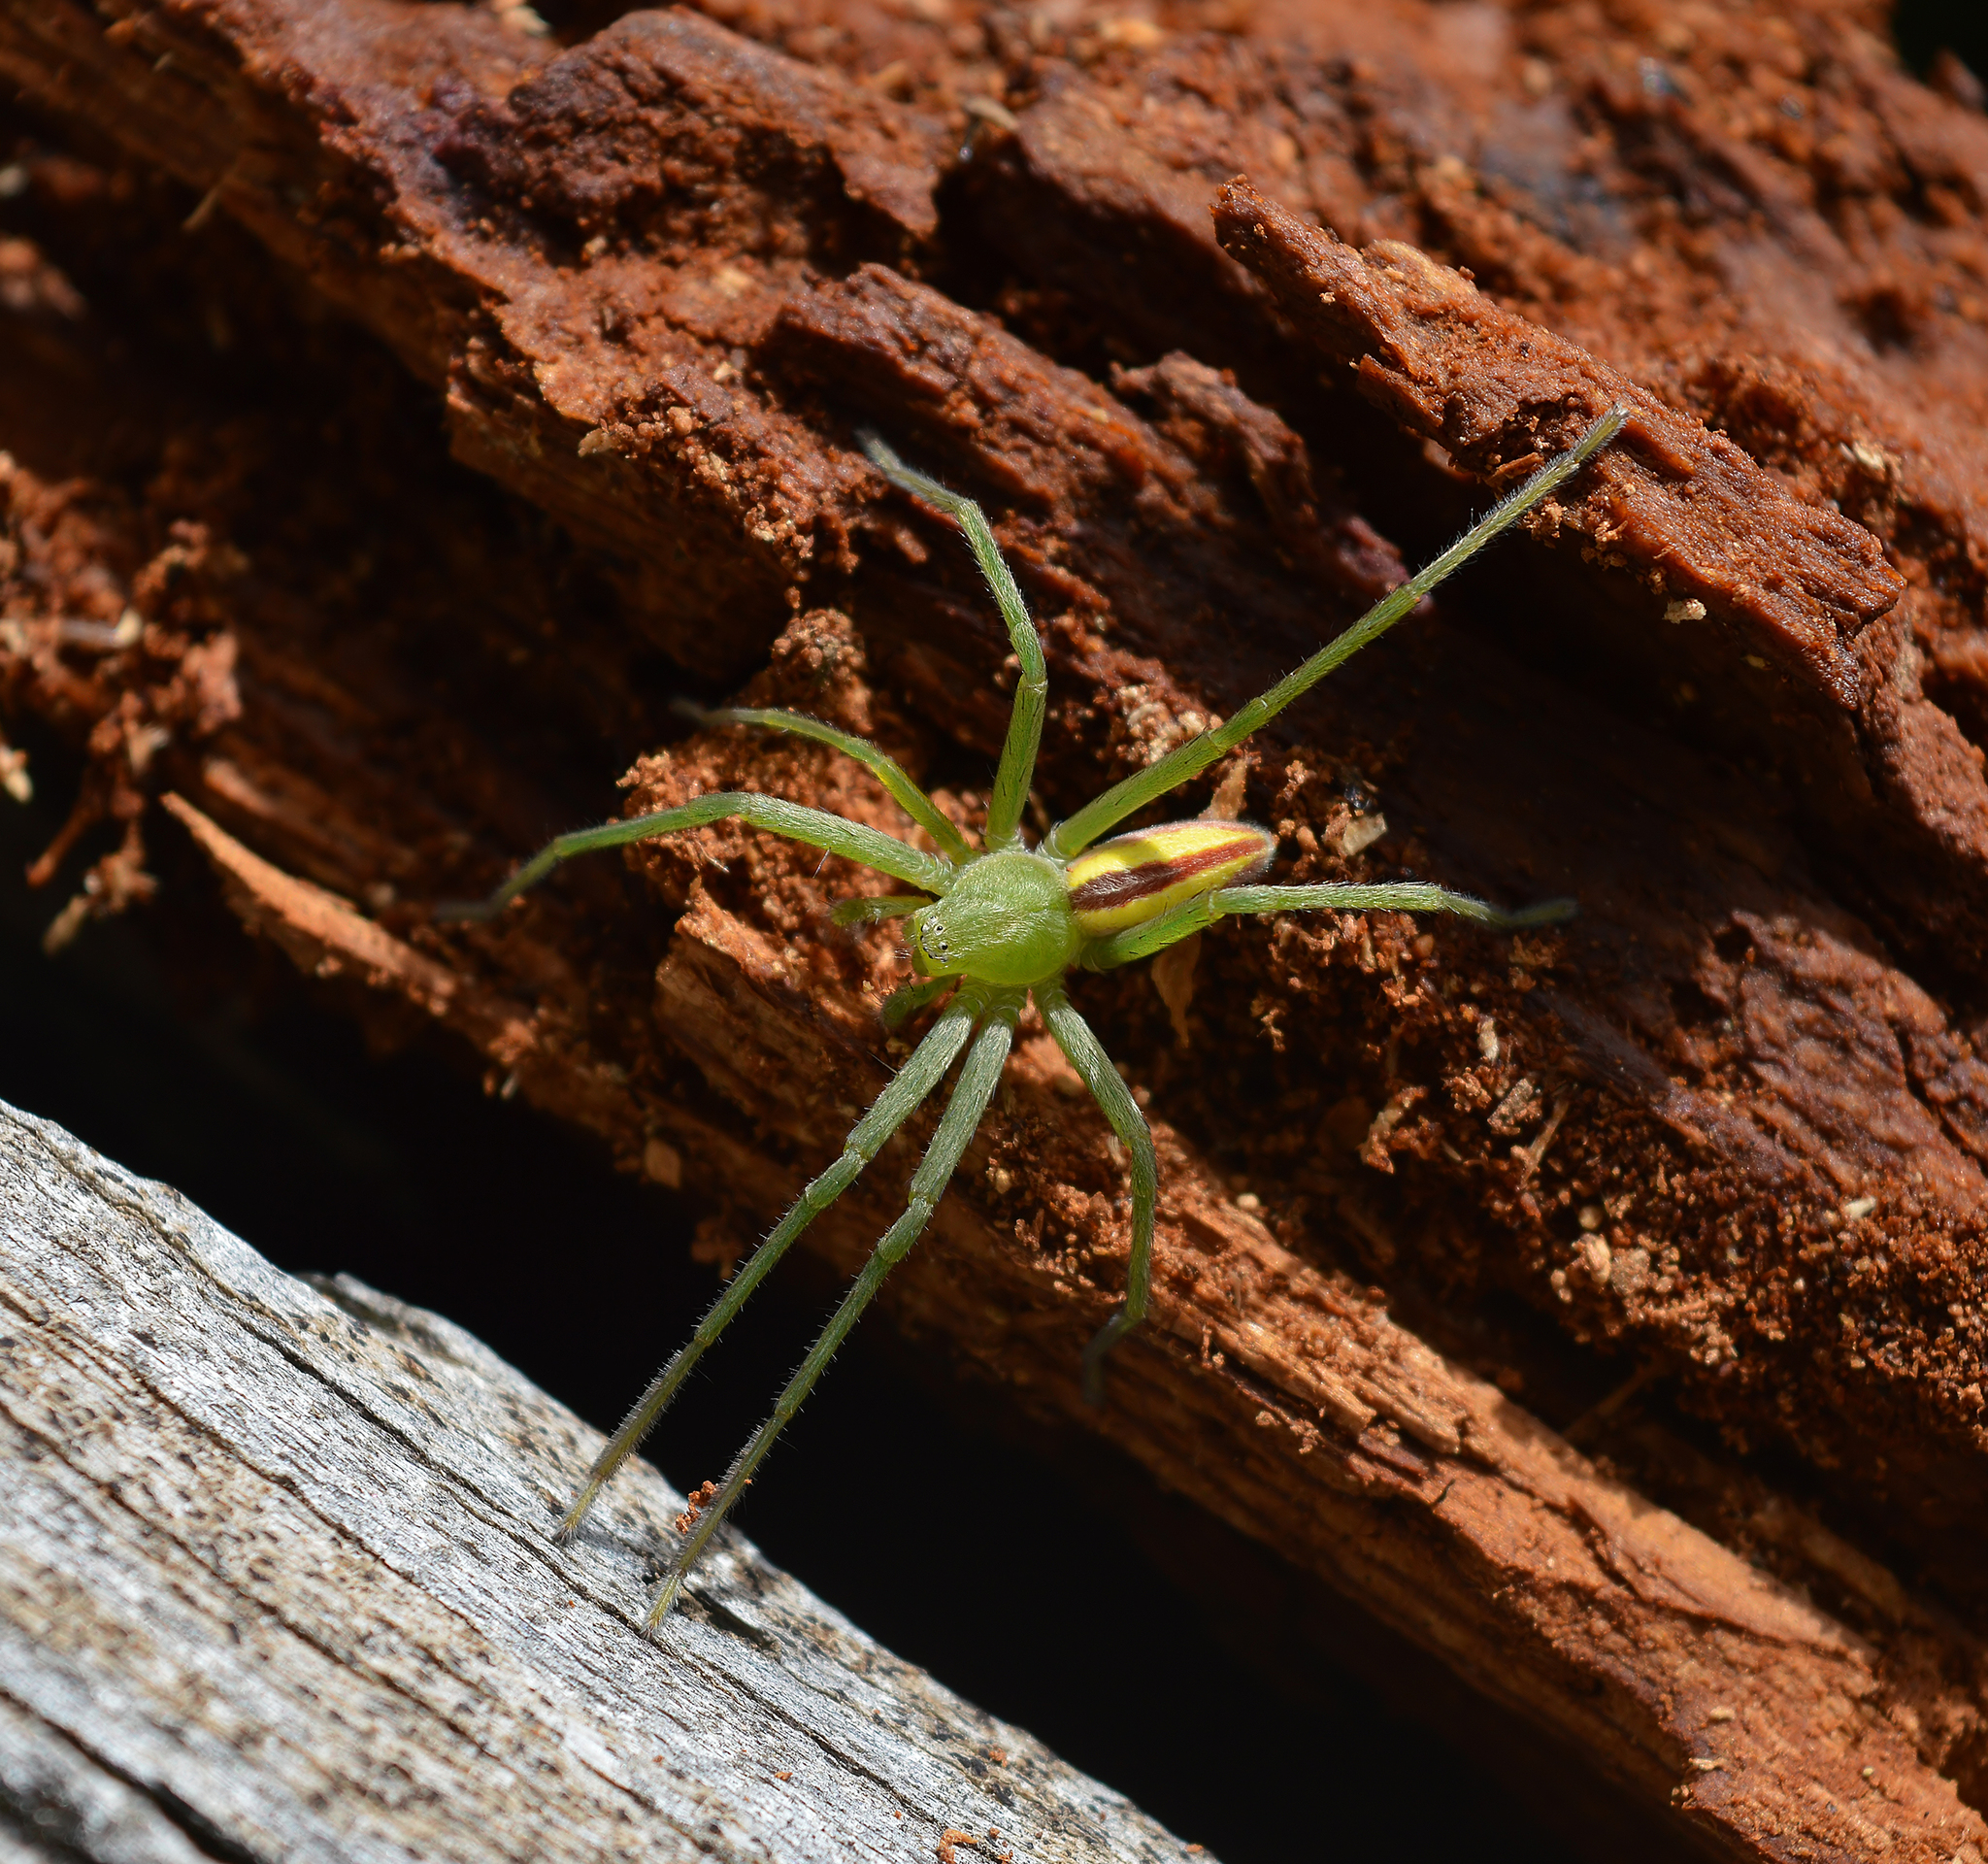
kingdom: Animalia
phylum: Arthropoda
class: Arachnida
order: Araneae
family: Sparassidae
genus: Micrommata
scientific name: Micrommata virescens
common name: Green spider
